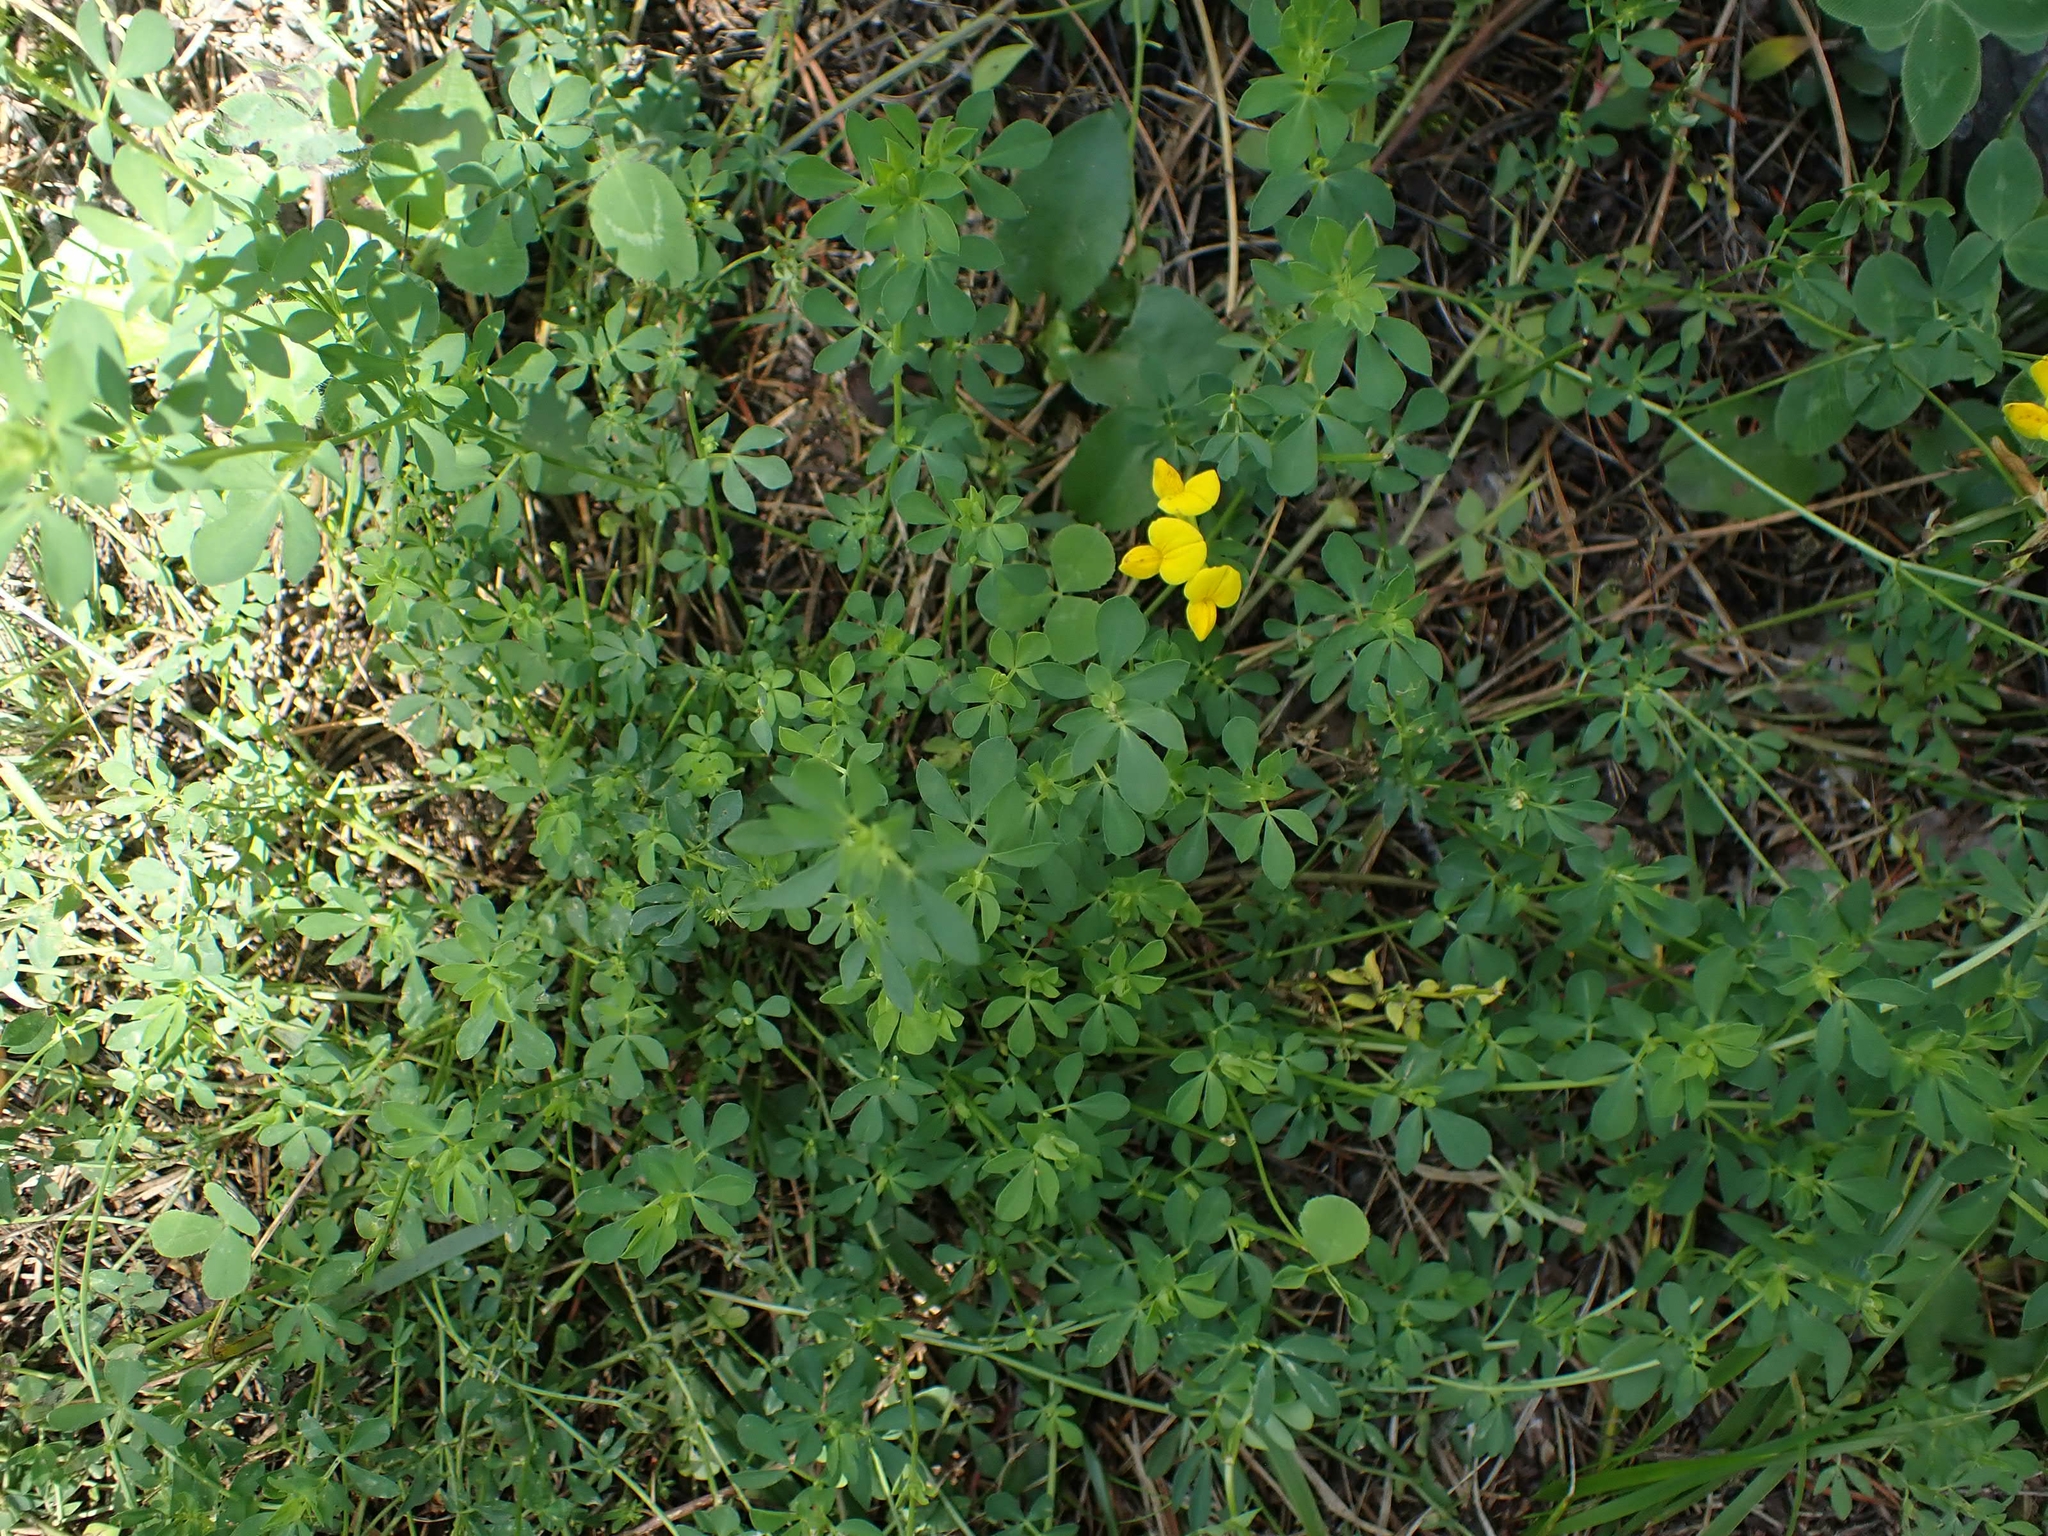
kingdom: Plantae
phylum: Tracheophyta
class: Magnoliopsida
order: Fabales
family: Fabaceae
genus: Lotus
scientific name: Lotus corniculatus
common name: Common bird's-foot-trefoil
